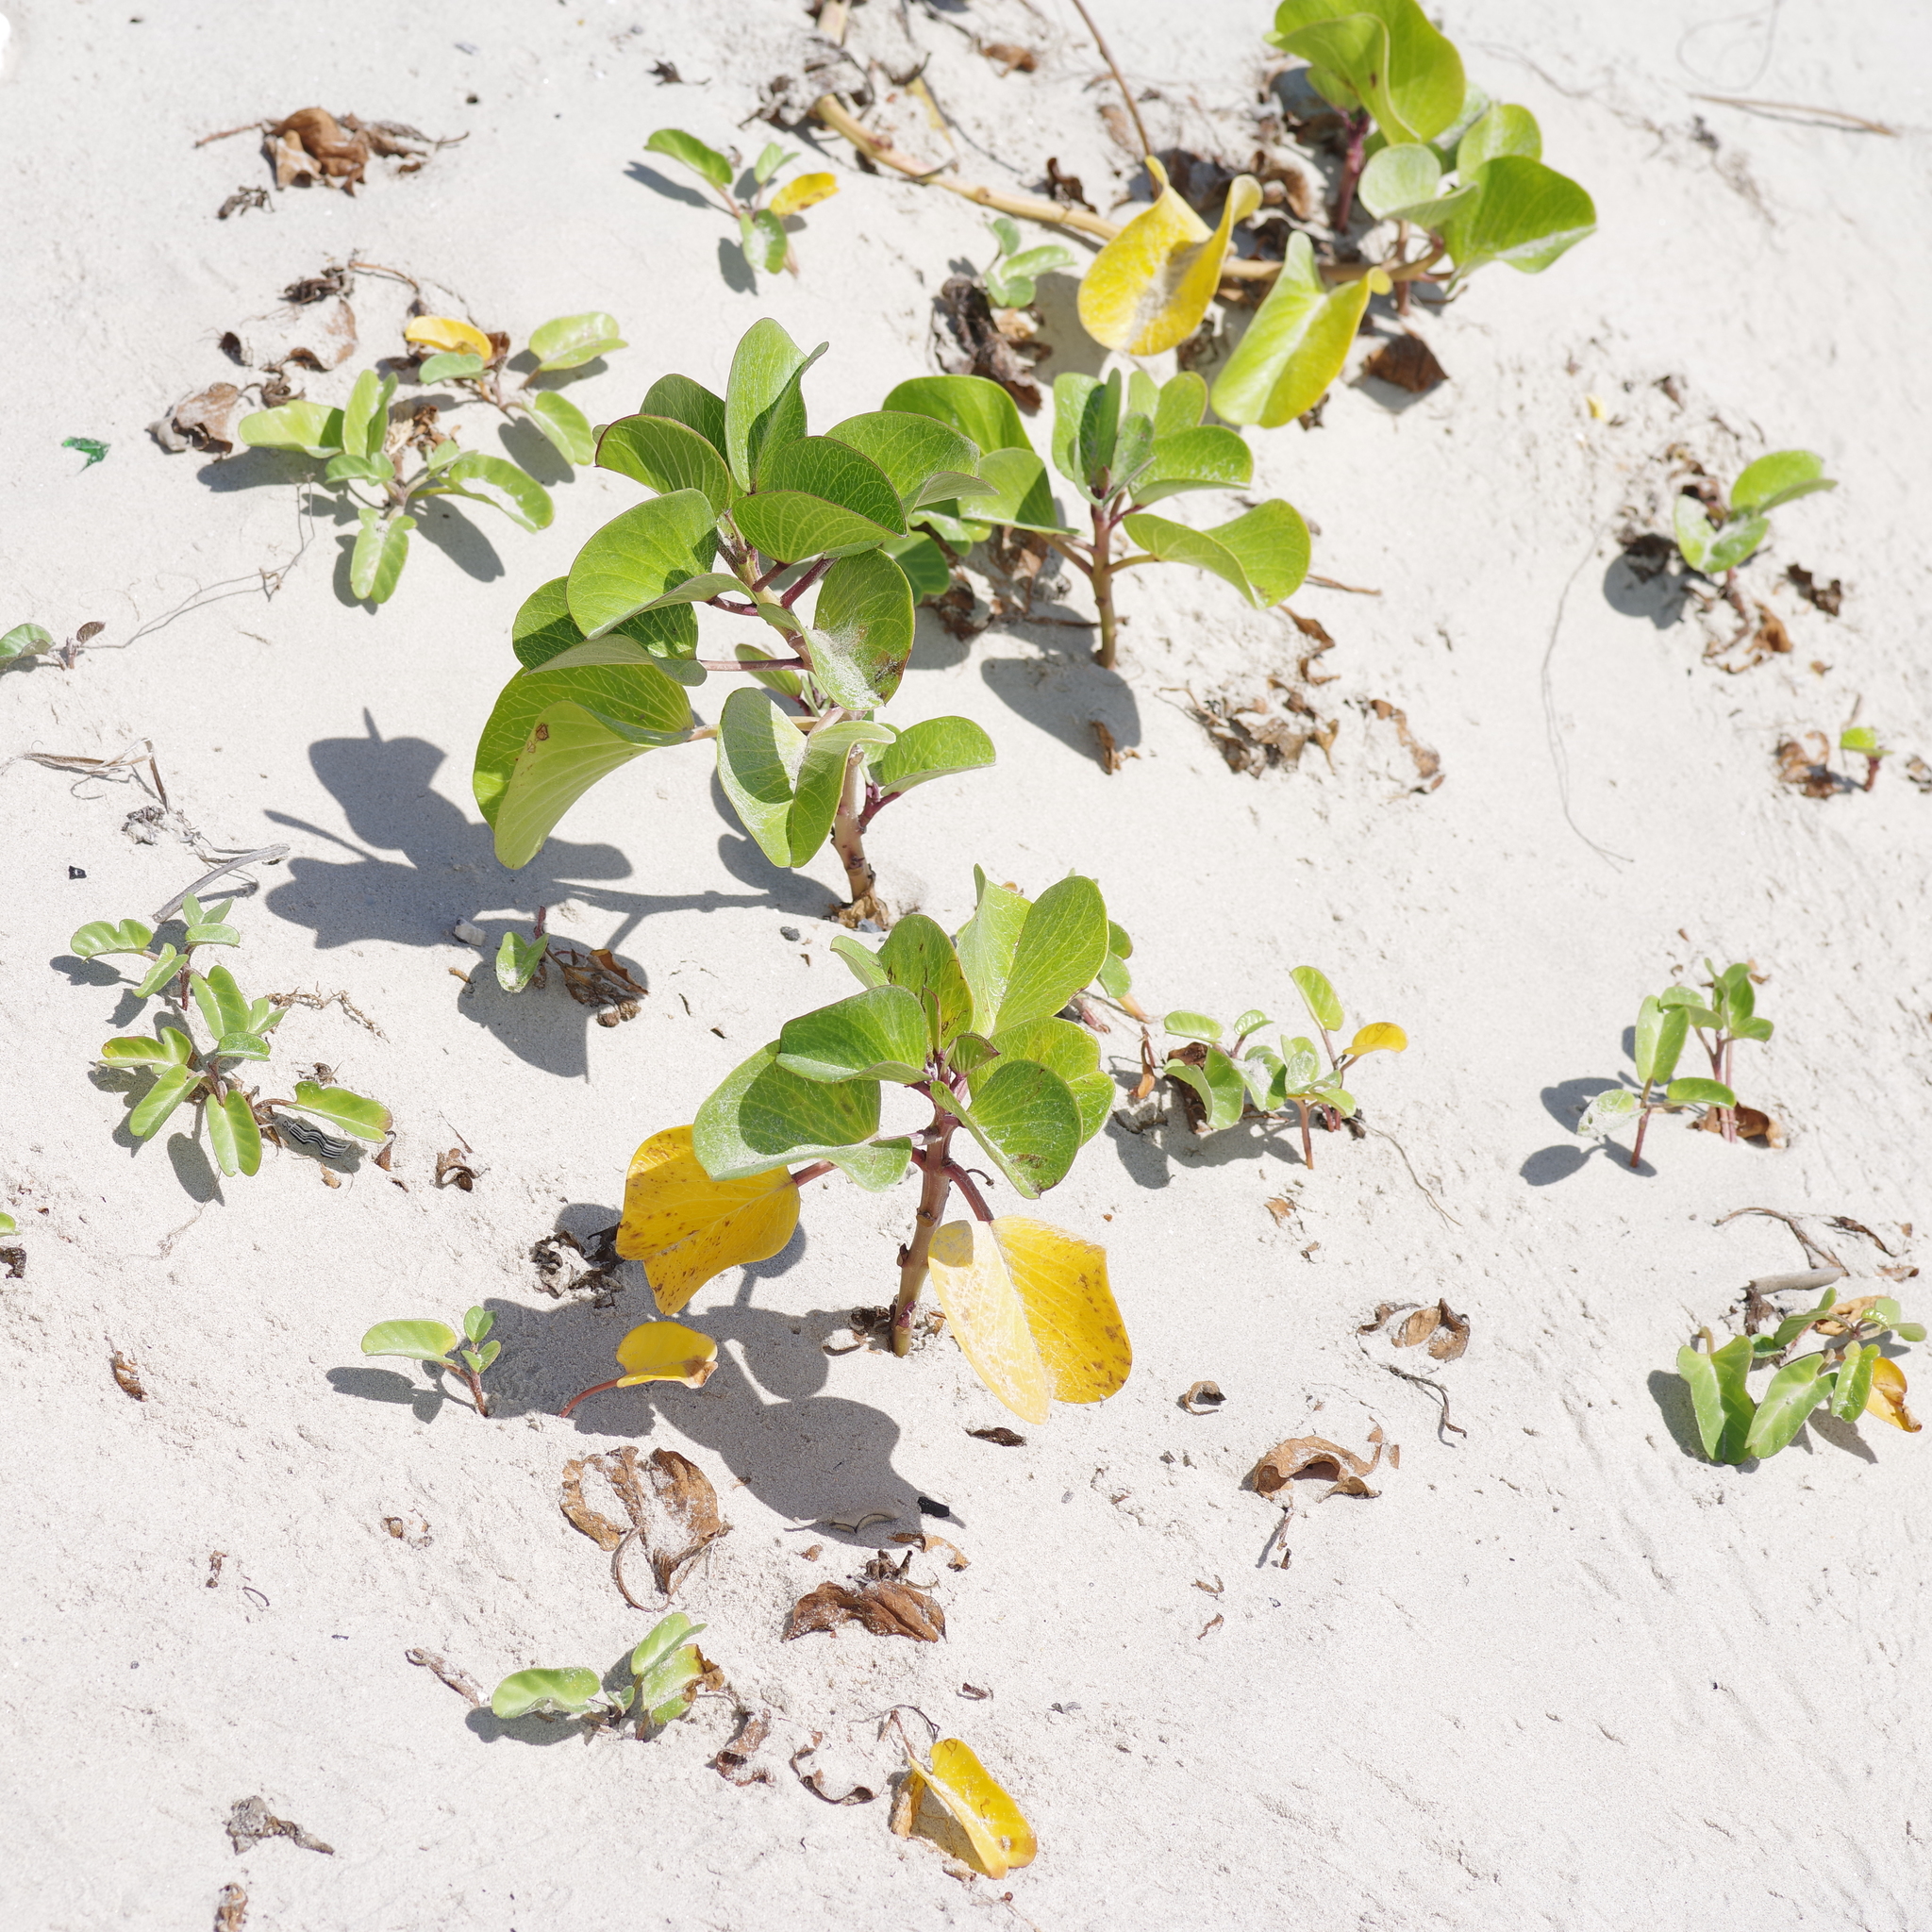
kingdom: Plantae
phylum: Tracheophyta
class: Magnoliopsida
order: Solanales
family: Convolvulaceae
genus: Ipomoea
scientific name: Ipomoea pes-caprae
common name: Beach morning glory
